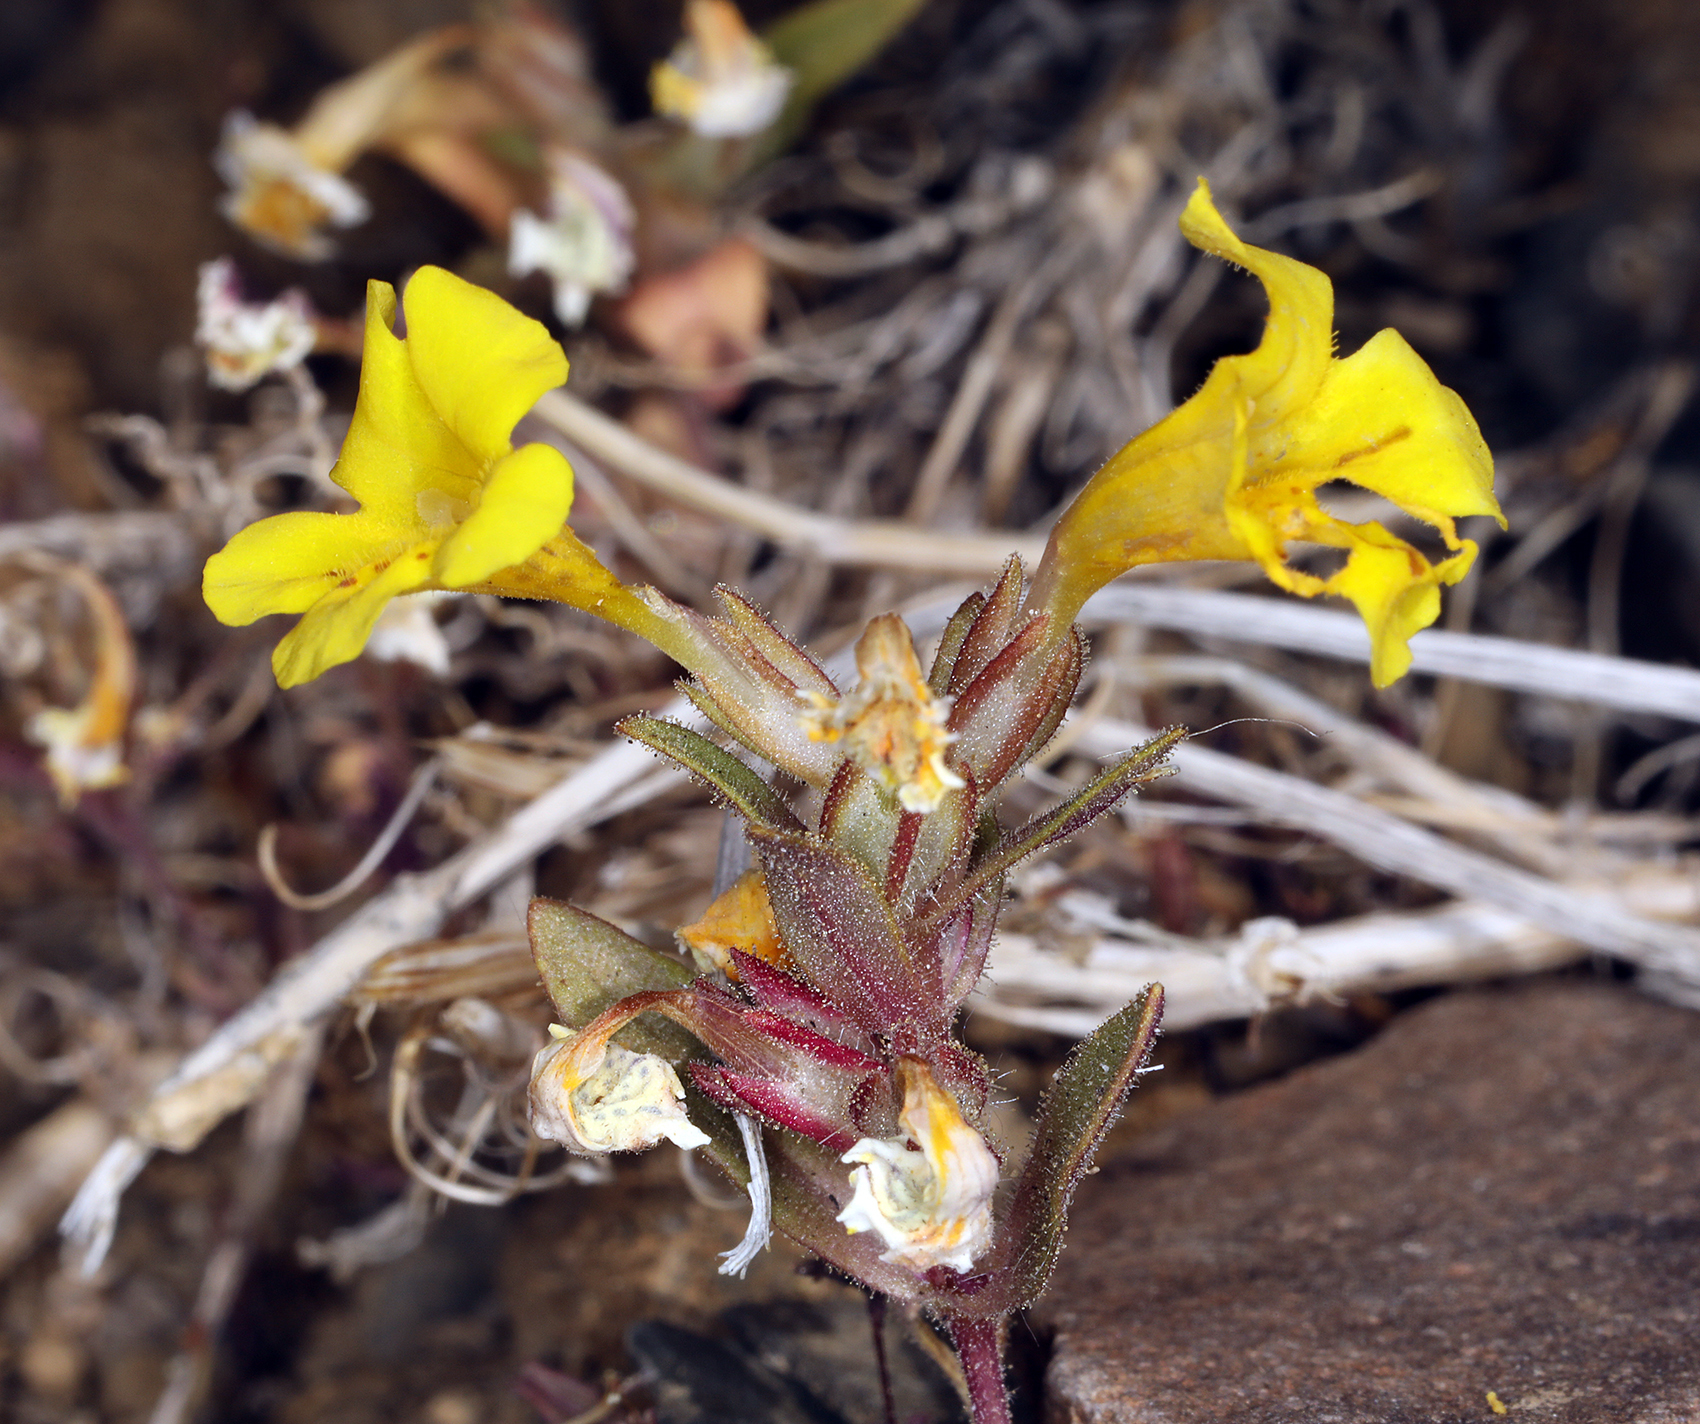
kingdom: Plantae
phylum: Tracheophyta
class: Magnoliopsida
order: Lamiales
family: Phrymaceae
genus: Diplacus
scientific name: Diplacus mephiticus
